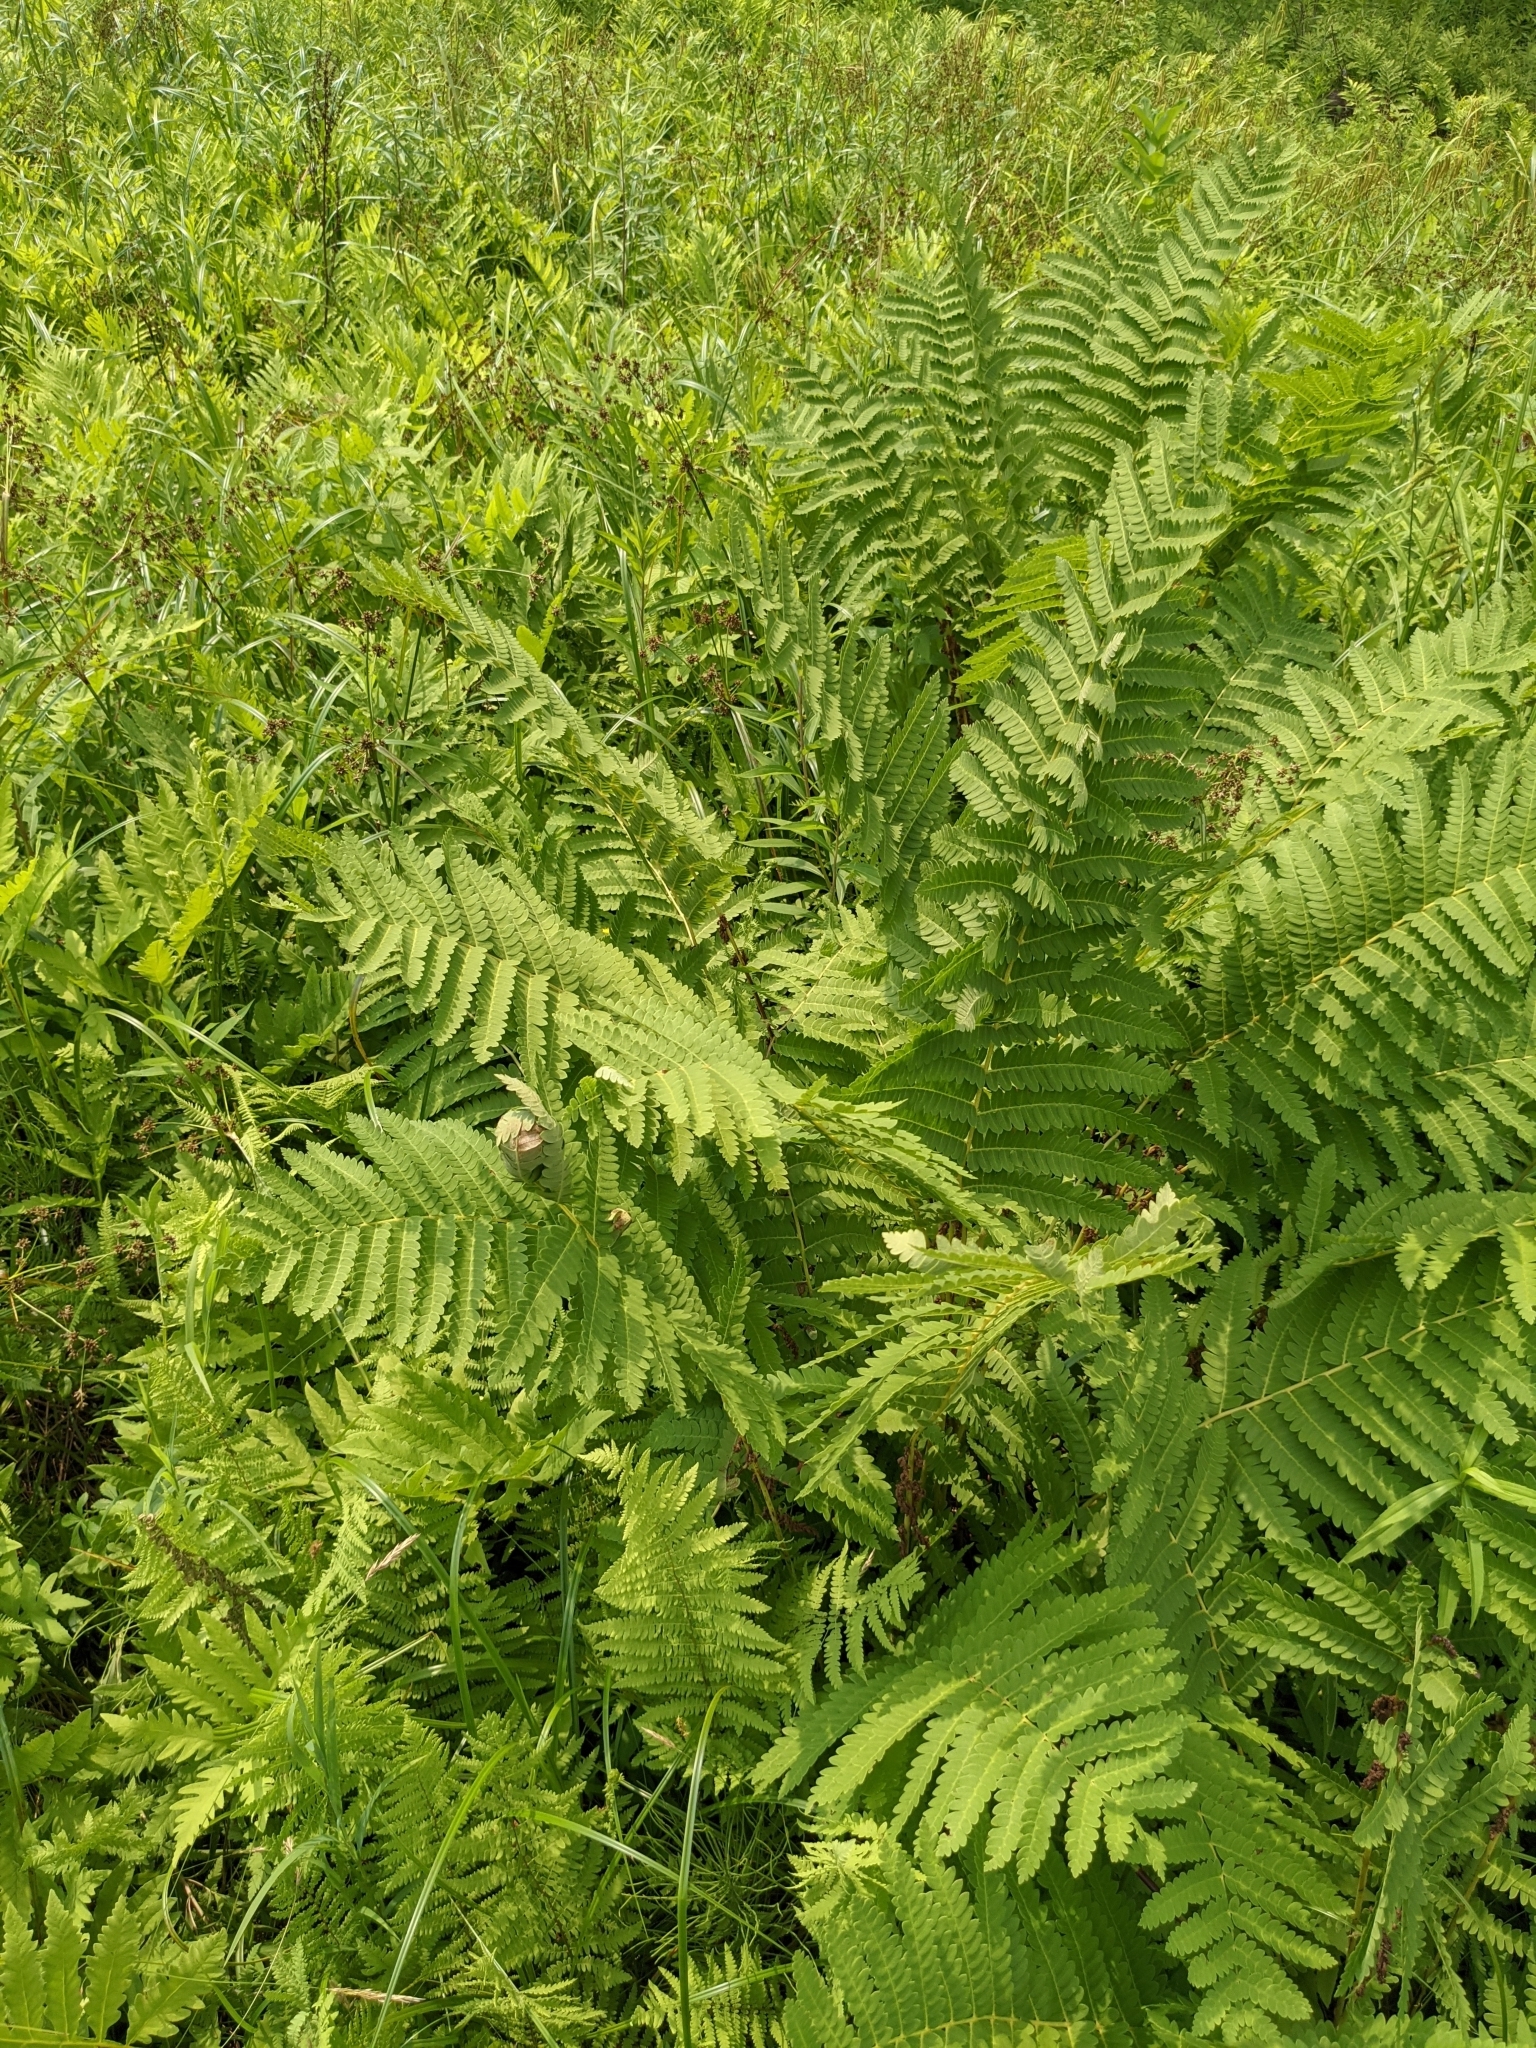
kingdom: Plantae
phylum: Tracheophyta
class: Polypodiopsida
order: Osmundales
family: Osmundaceae
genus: Claytosmunda
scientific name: Claytosmunda claytoniana
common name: Clayton's fern
